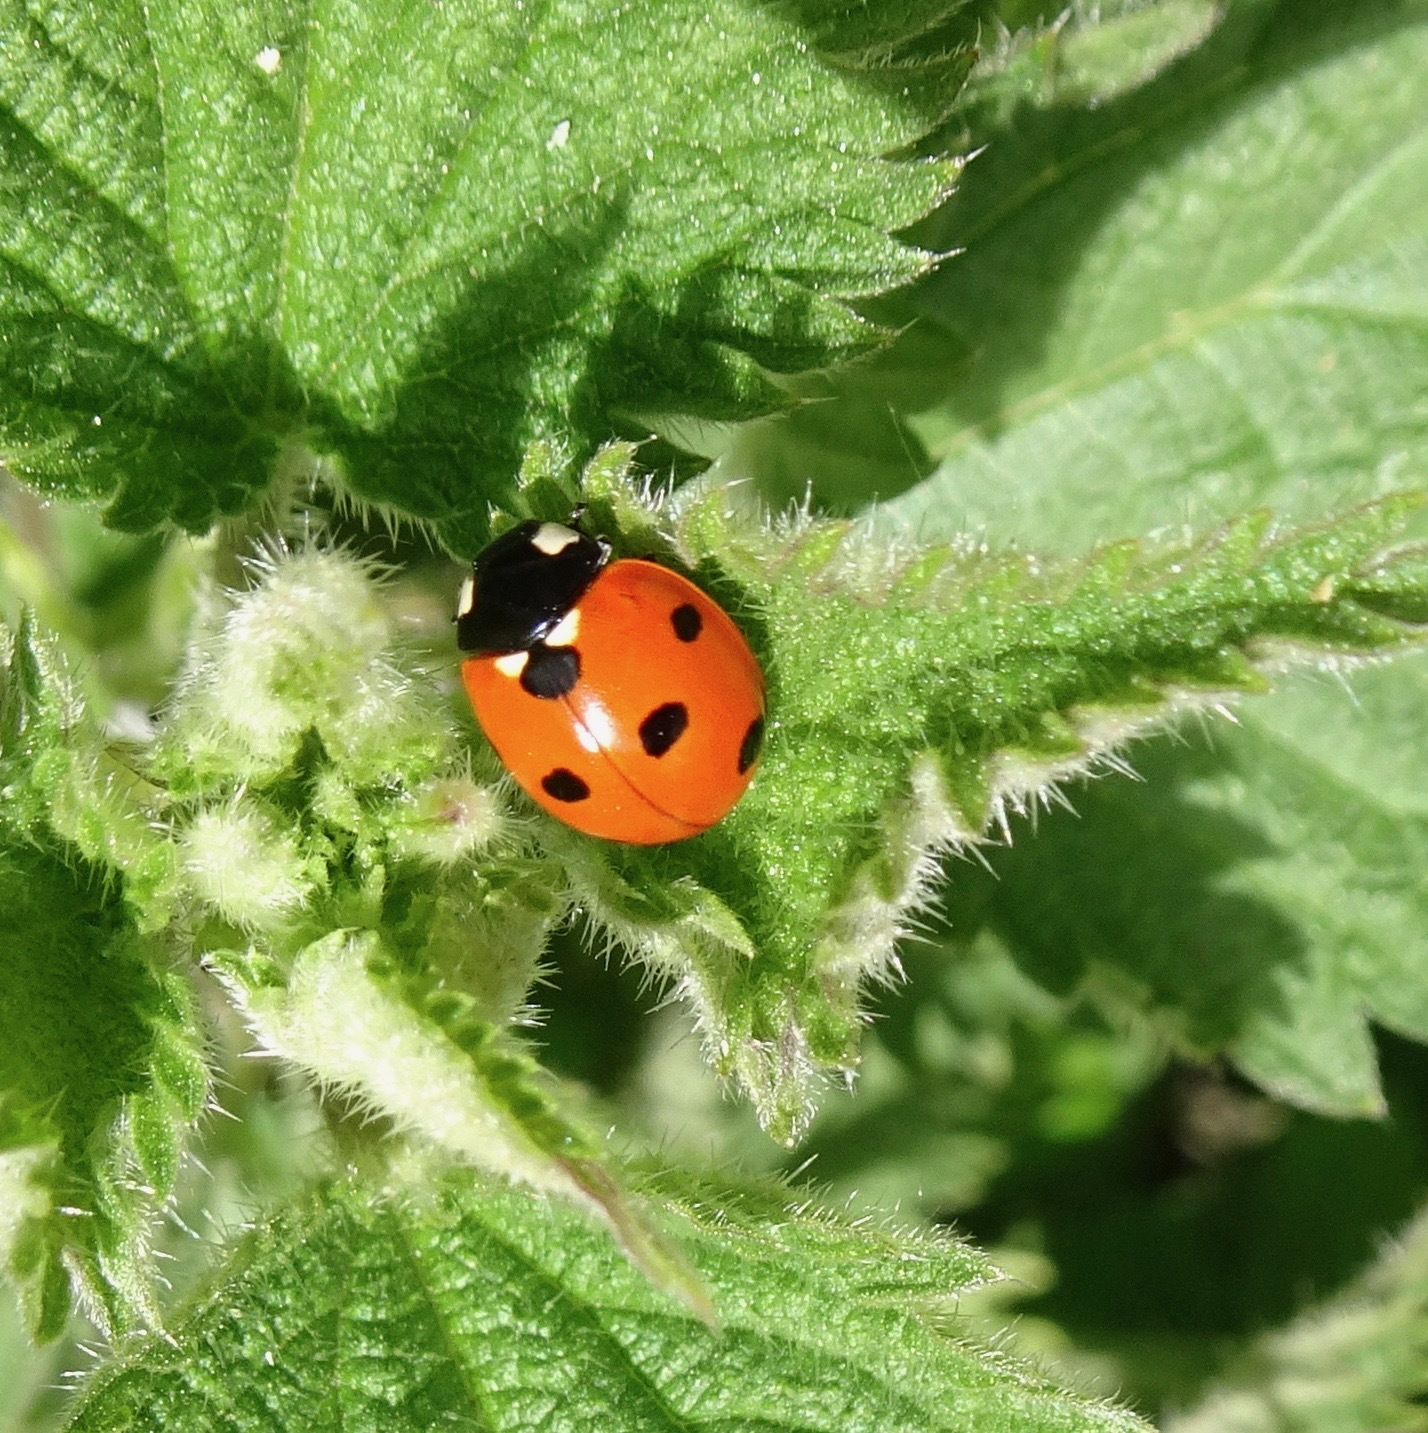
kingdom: Animalia
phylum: Arthropoda
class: Insecta
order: Coleoptera
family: Coccinellidae
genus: Coccinella
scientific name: Coccinella septempunctata
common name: Sevenspotted lady beetle
